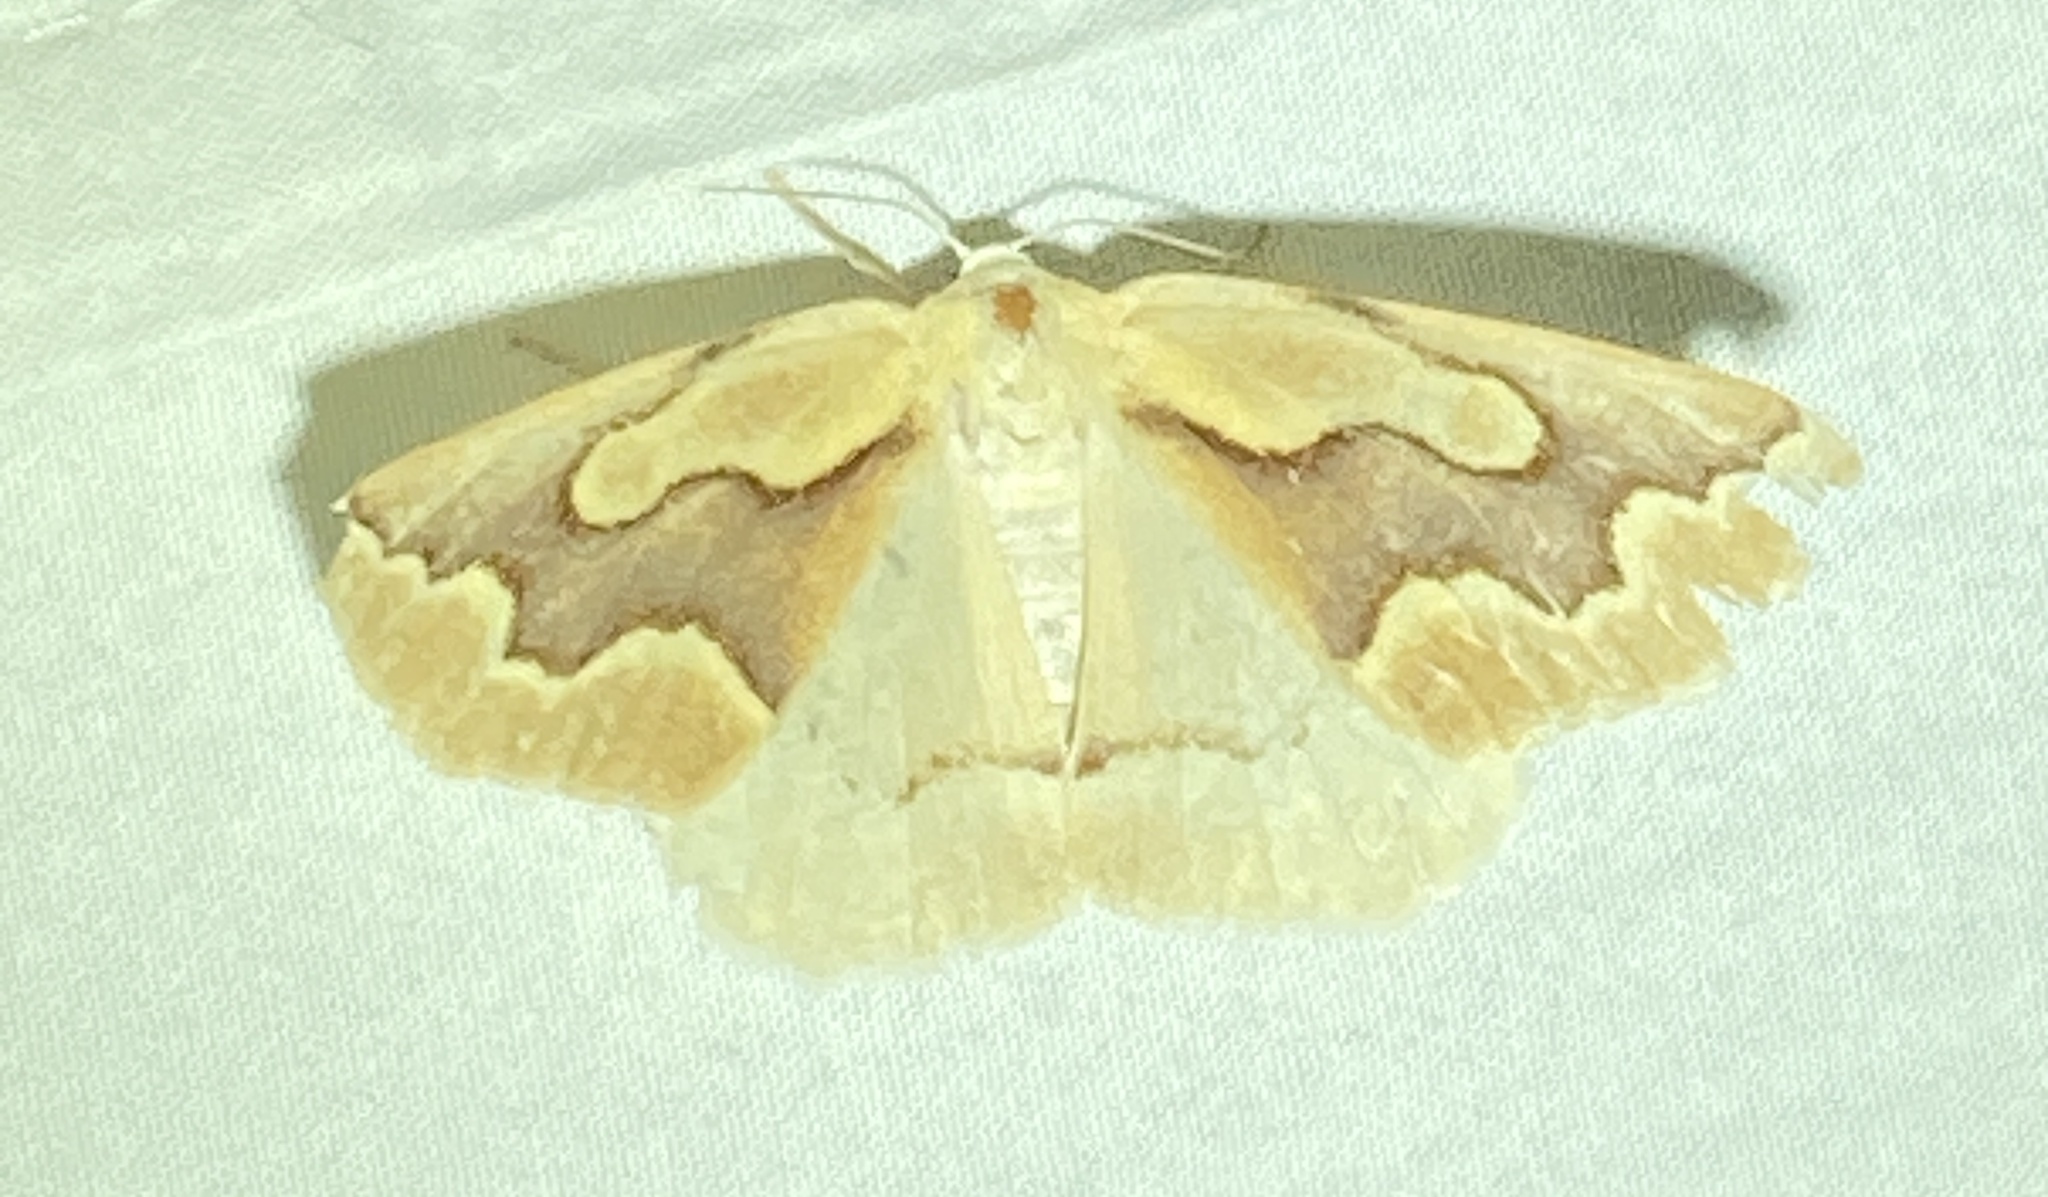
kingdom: Animalia
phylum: Arthropoda
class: Insecta
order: Lepidoptera
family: Geometridae
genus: Sabulodes
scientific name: Sabulodes edwardsata
